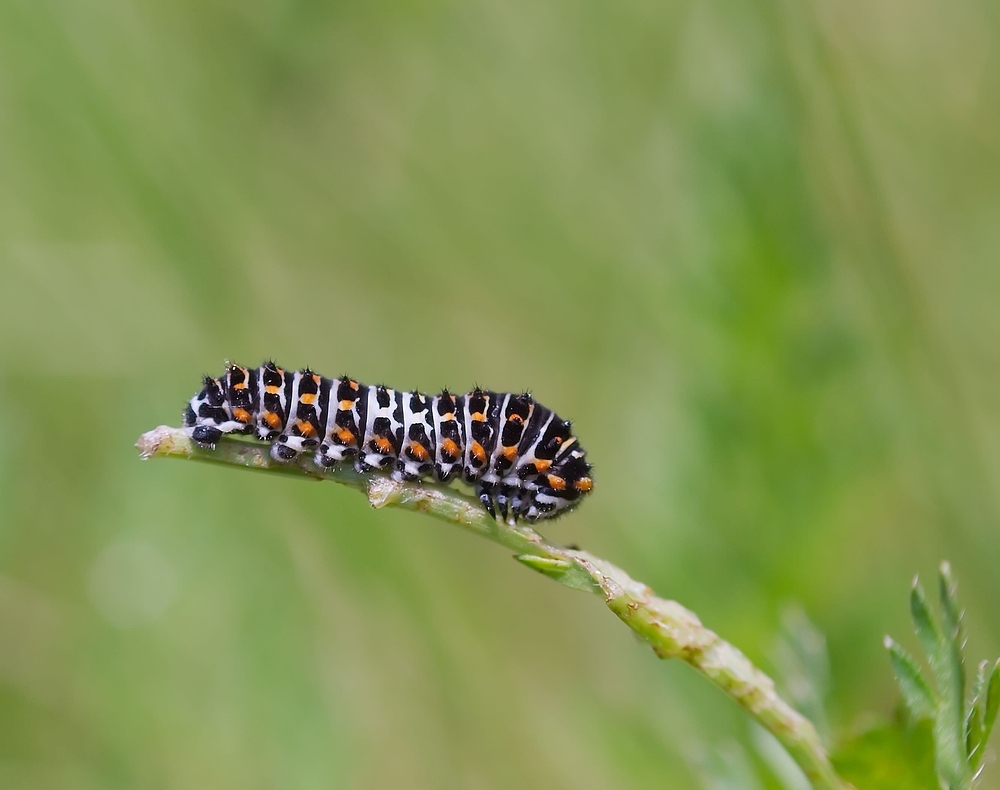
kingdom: Animalia
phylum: Arthropoda
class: Insecta
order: Lepidoptera
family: Papilionidae
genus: Papilio
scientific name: Papilio machaon
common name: Swallowtail
